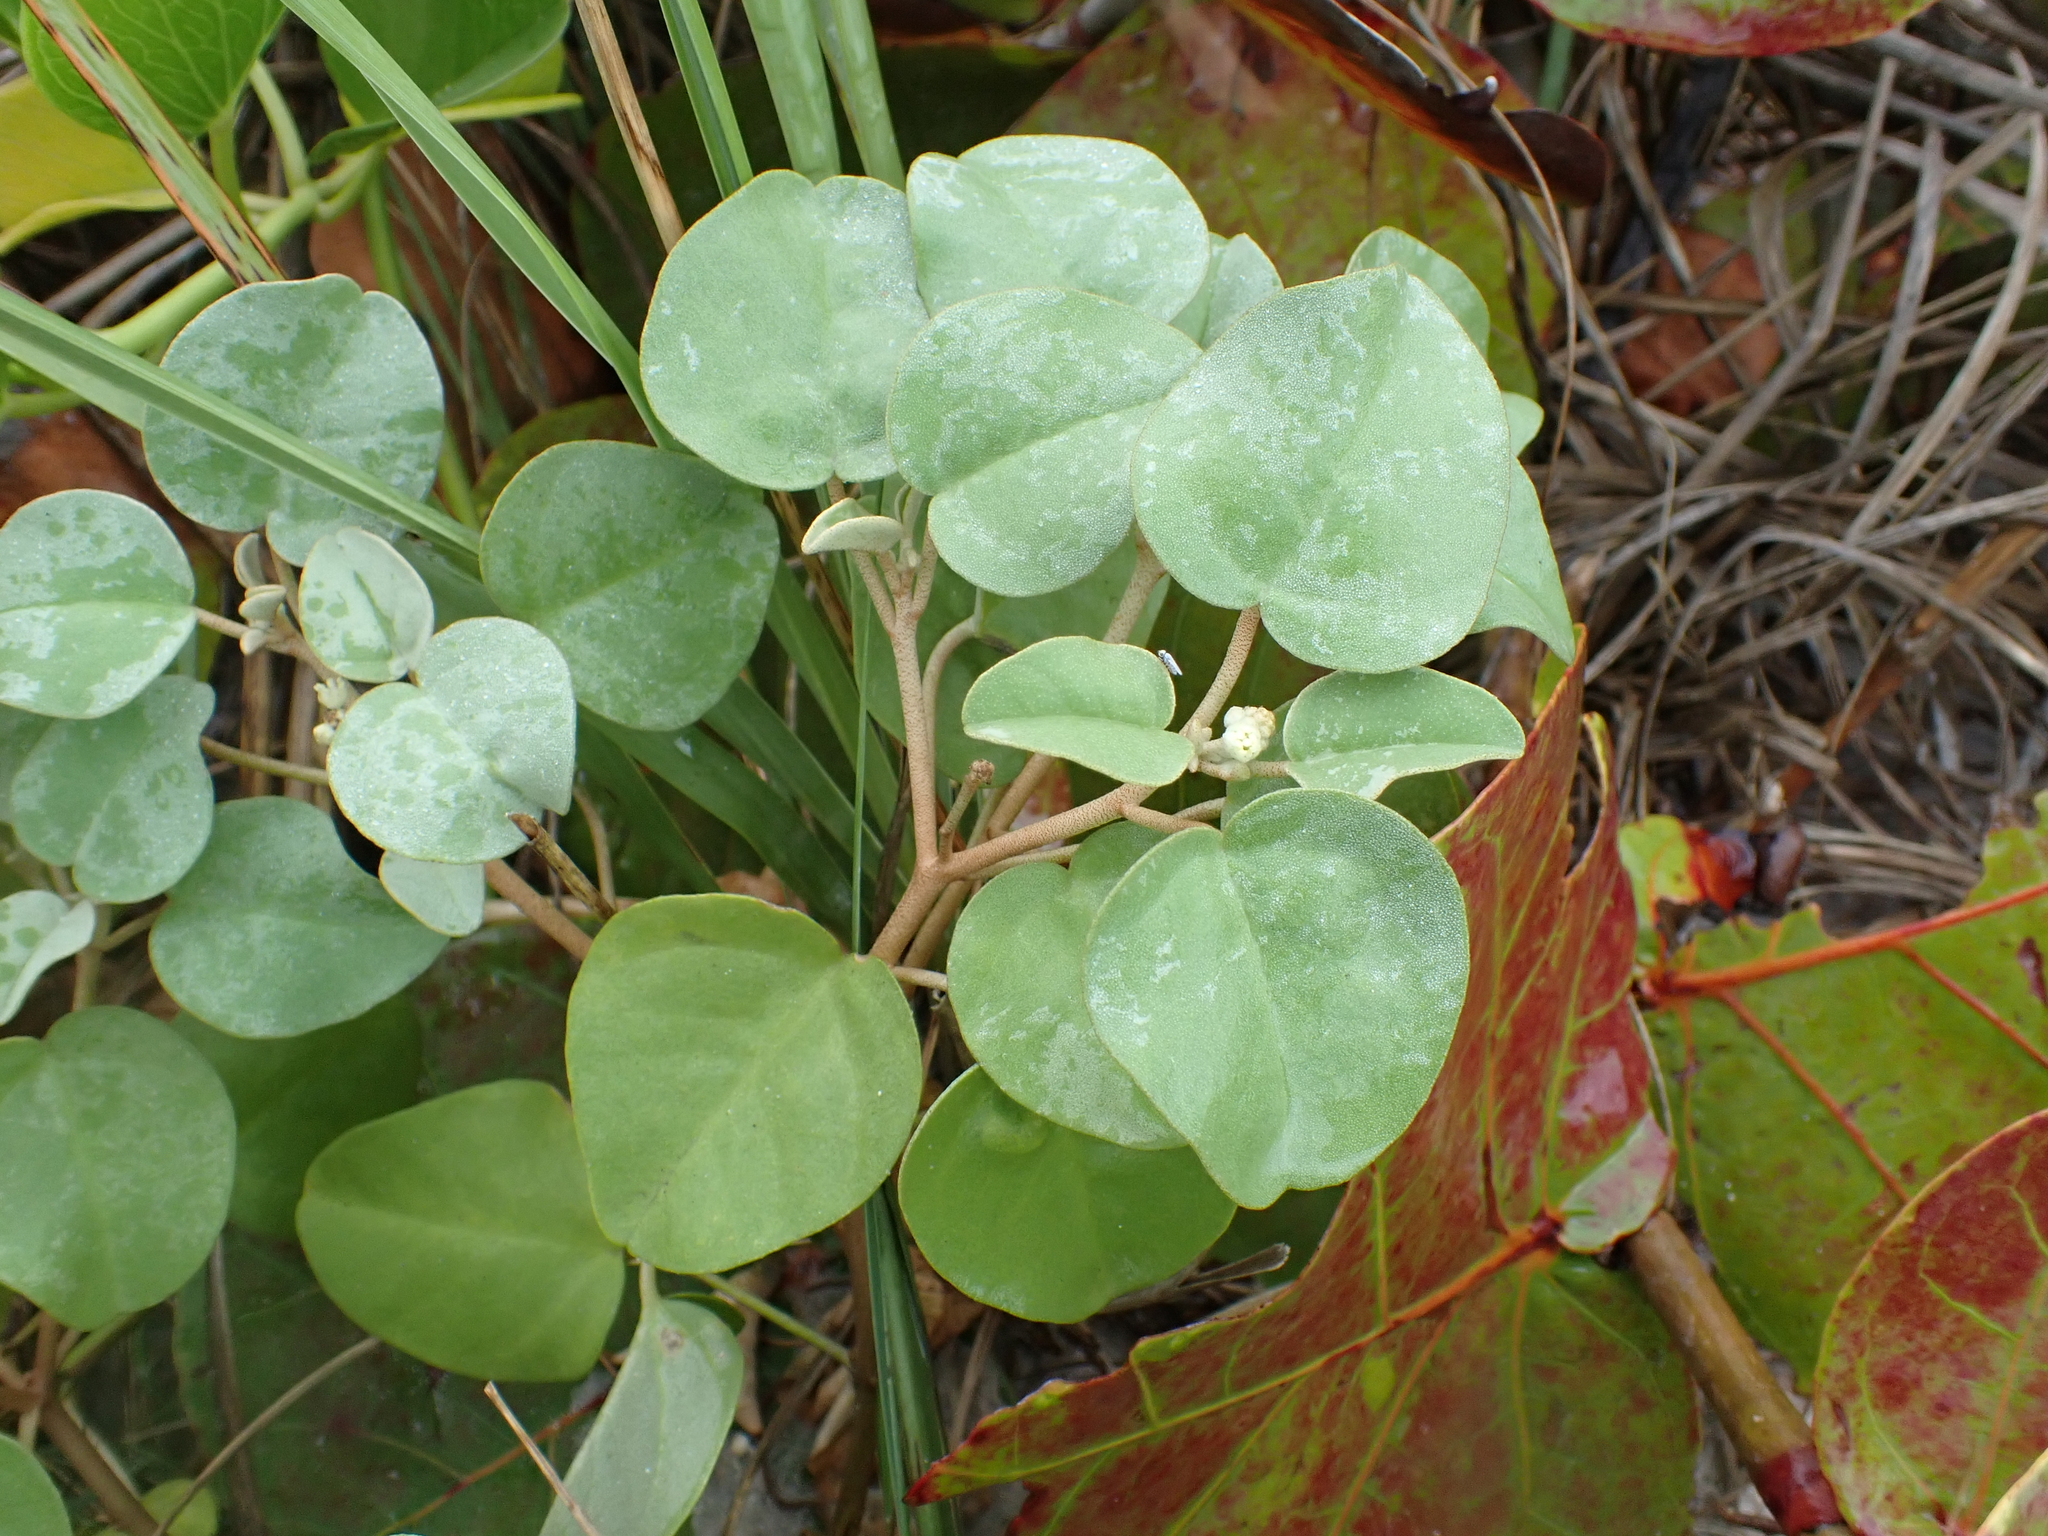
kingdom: Plantae
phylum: Tracheophyta
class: Magnoliopsida
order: Malpighiales
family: Euphorbiaceae
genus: Croton
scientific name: Croton punctatus
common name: Beach-tea
